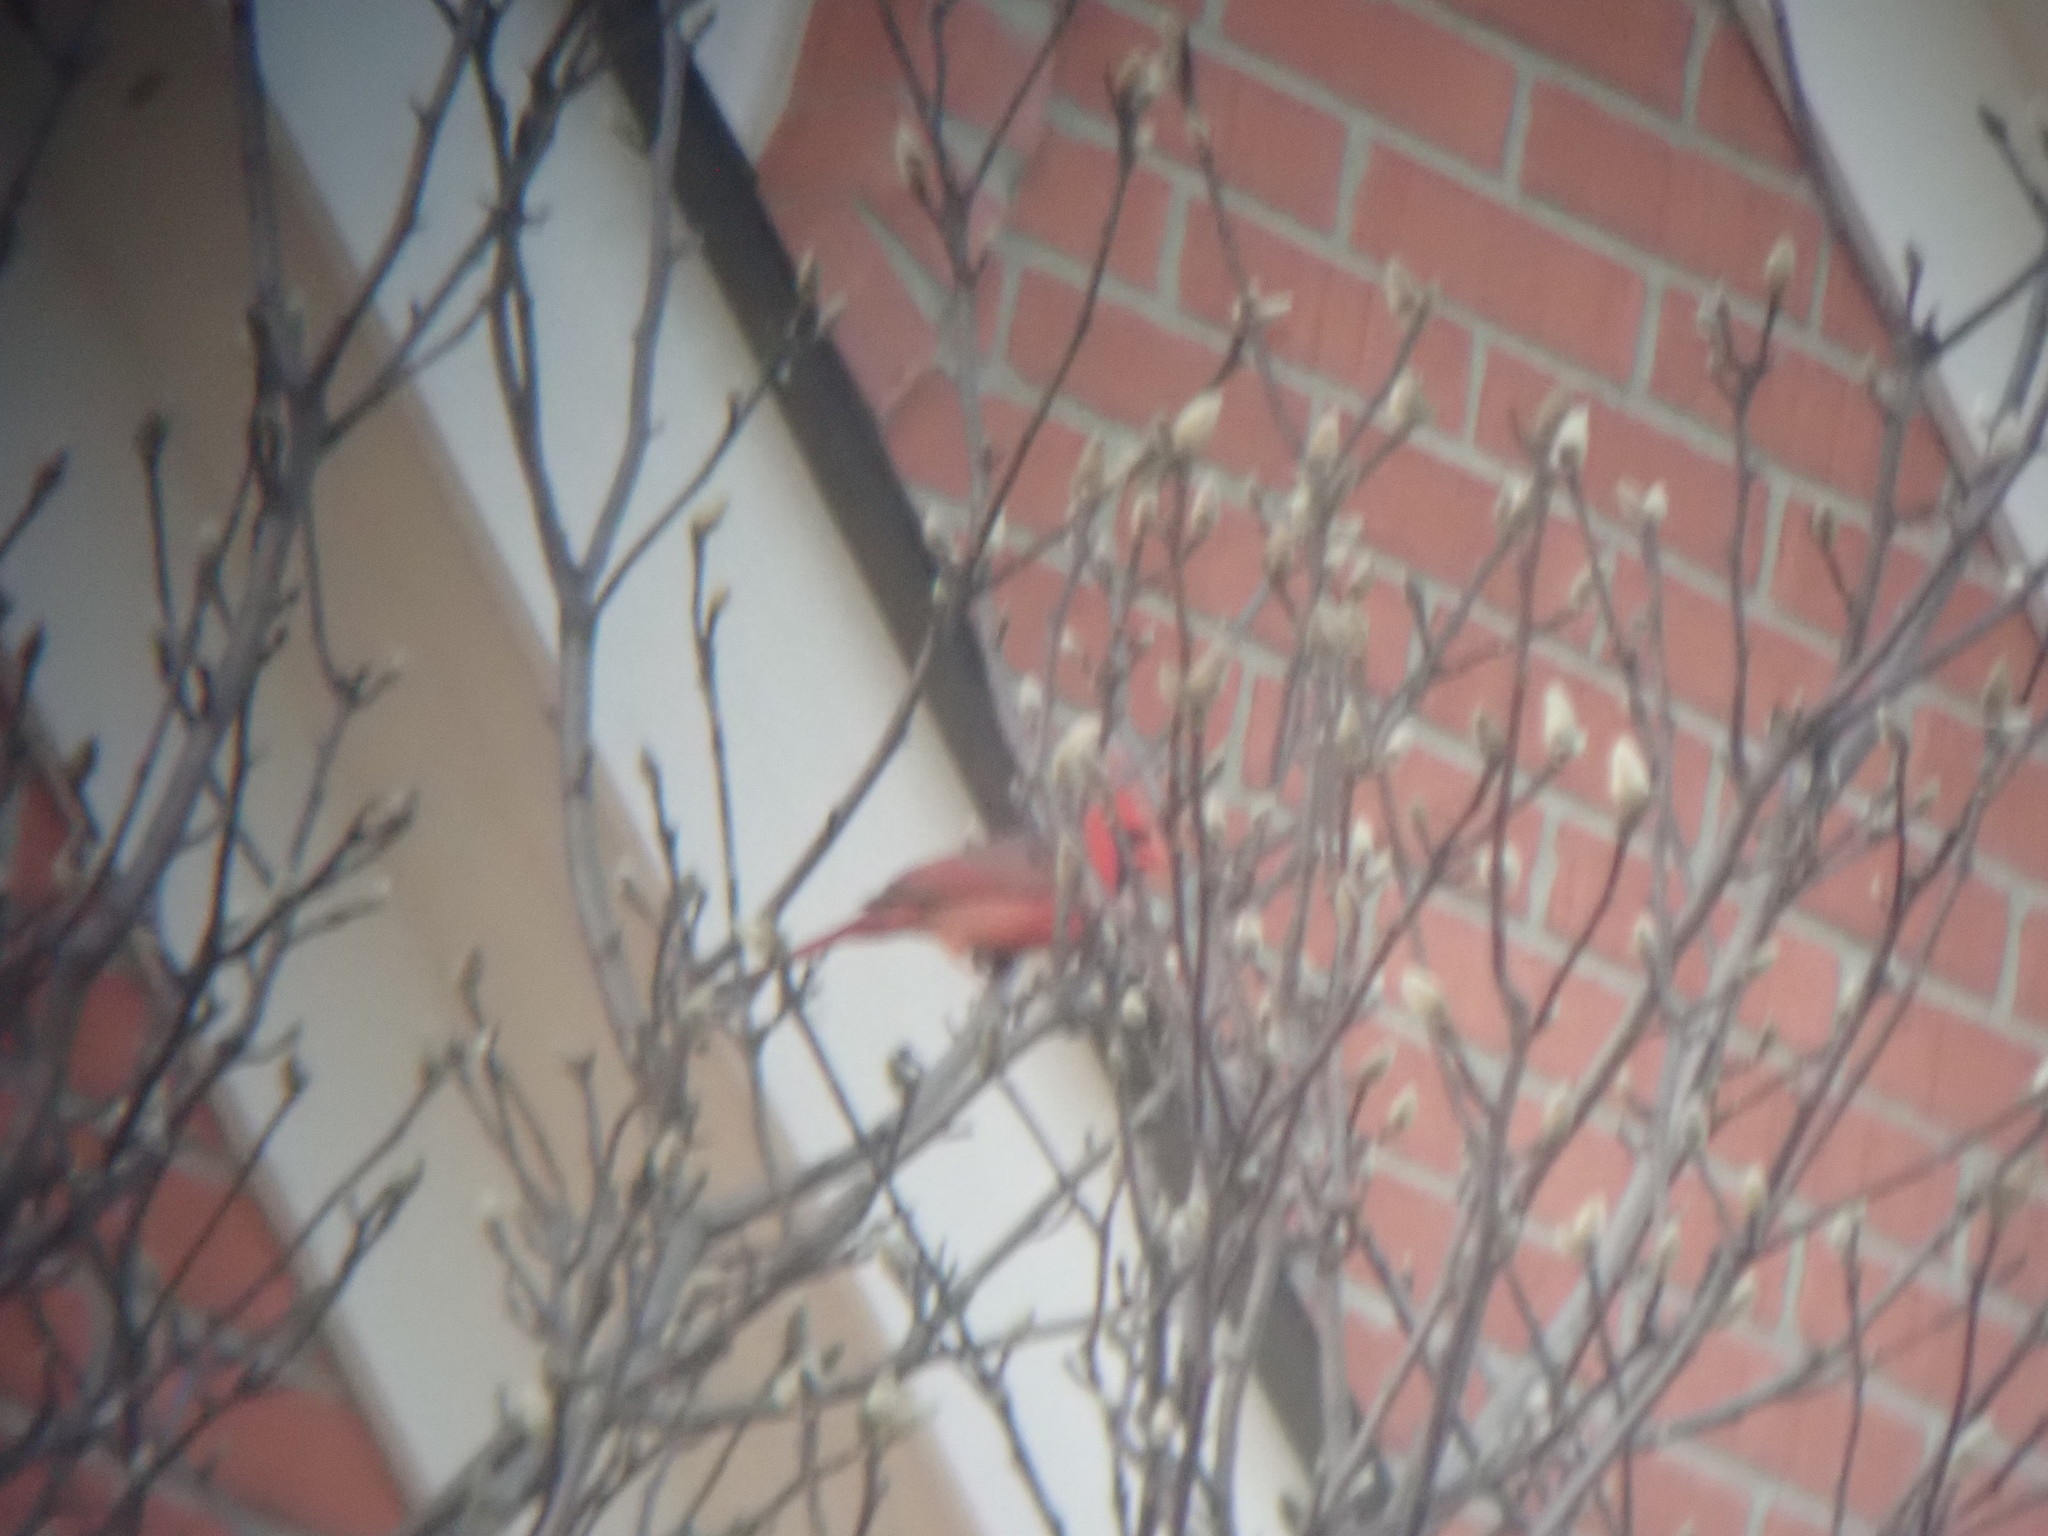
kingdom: Animalia
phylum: Chordata
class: Aves
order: Passeriformes
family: Cardinalidae
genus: Cardinalis
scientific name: Cardinalis cardinalis
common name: Northern cardinal
